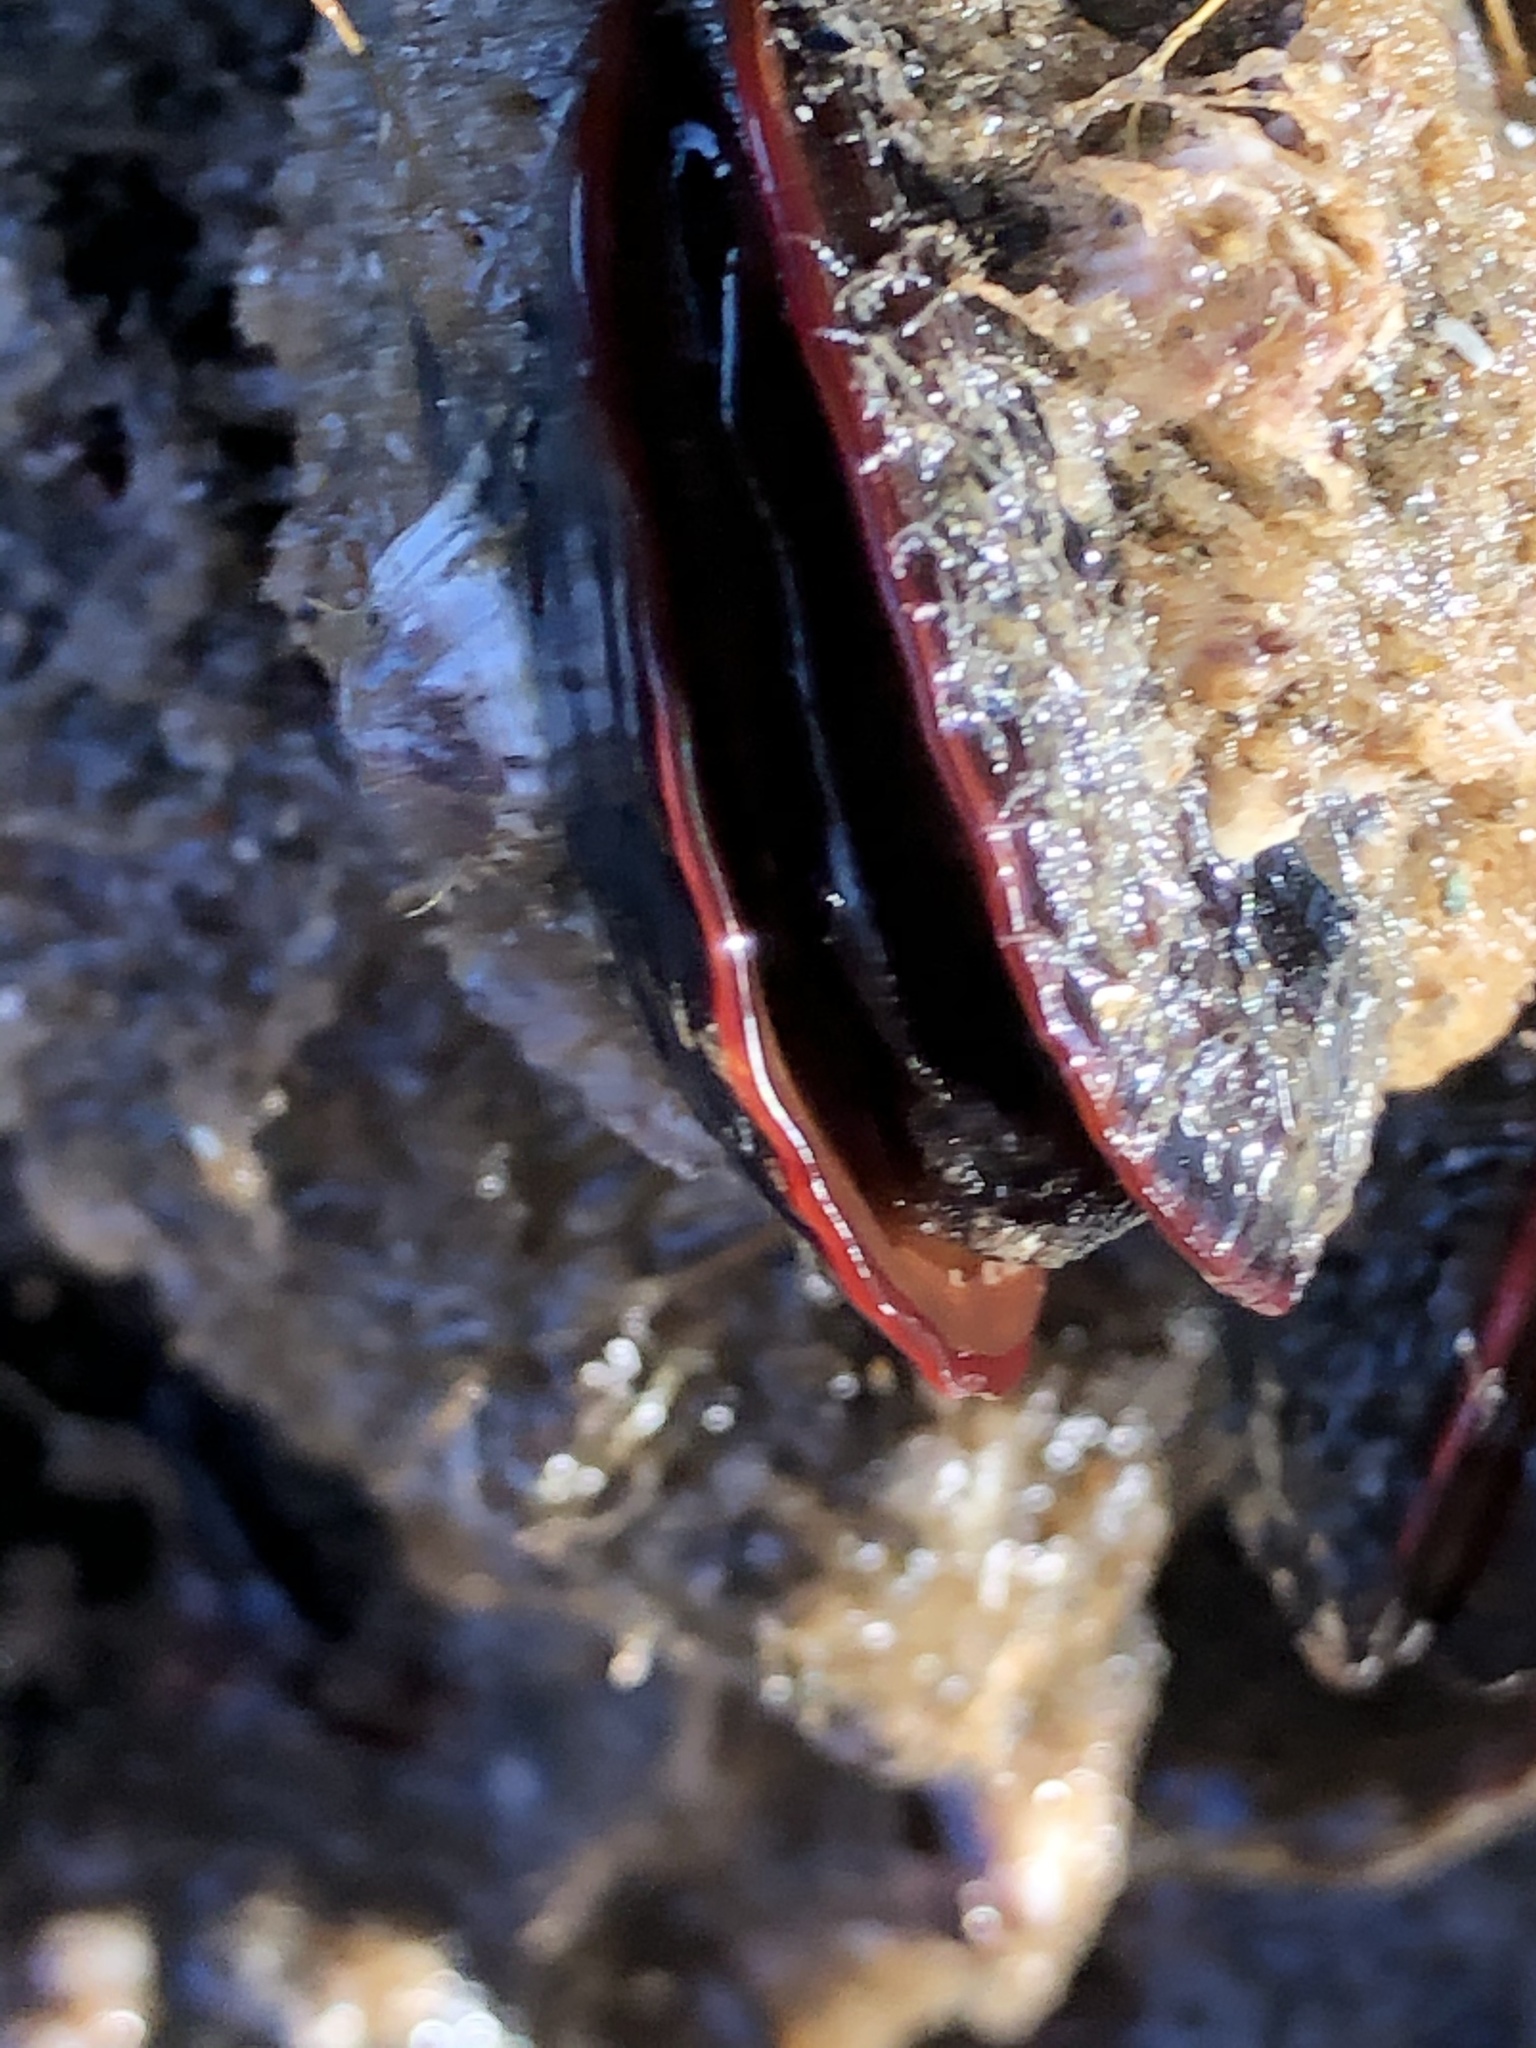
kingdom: Animalia
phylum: Mollusca
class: Bivalvia
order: Mytilida
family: Mytilidae
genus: Mytilus
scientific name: Mytilus californianus
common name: California mussel
